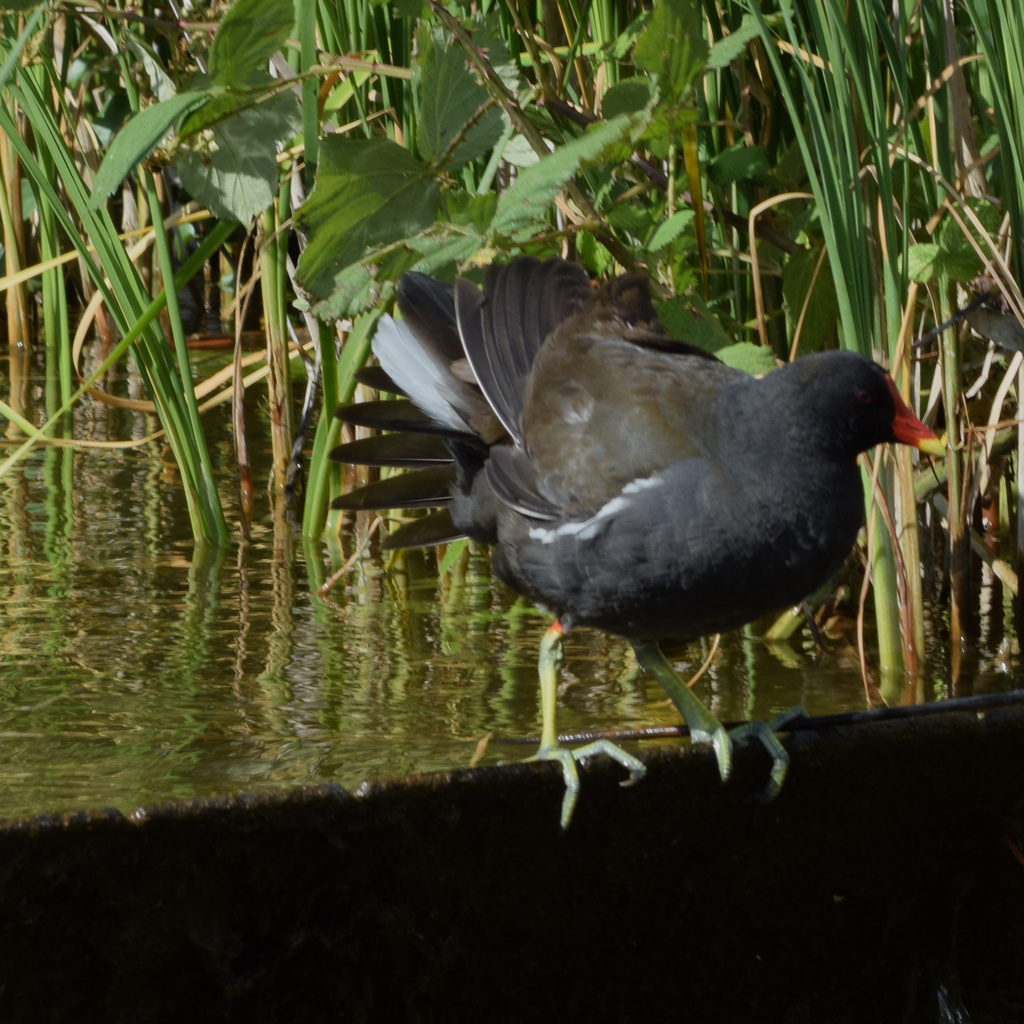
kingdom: Animalia
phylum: Chordata
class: Aves
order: Gruiformes
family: Rallidae
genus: Gallinula
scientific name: Gallinula chloropus
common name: Common moorhen
